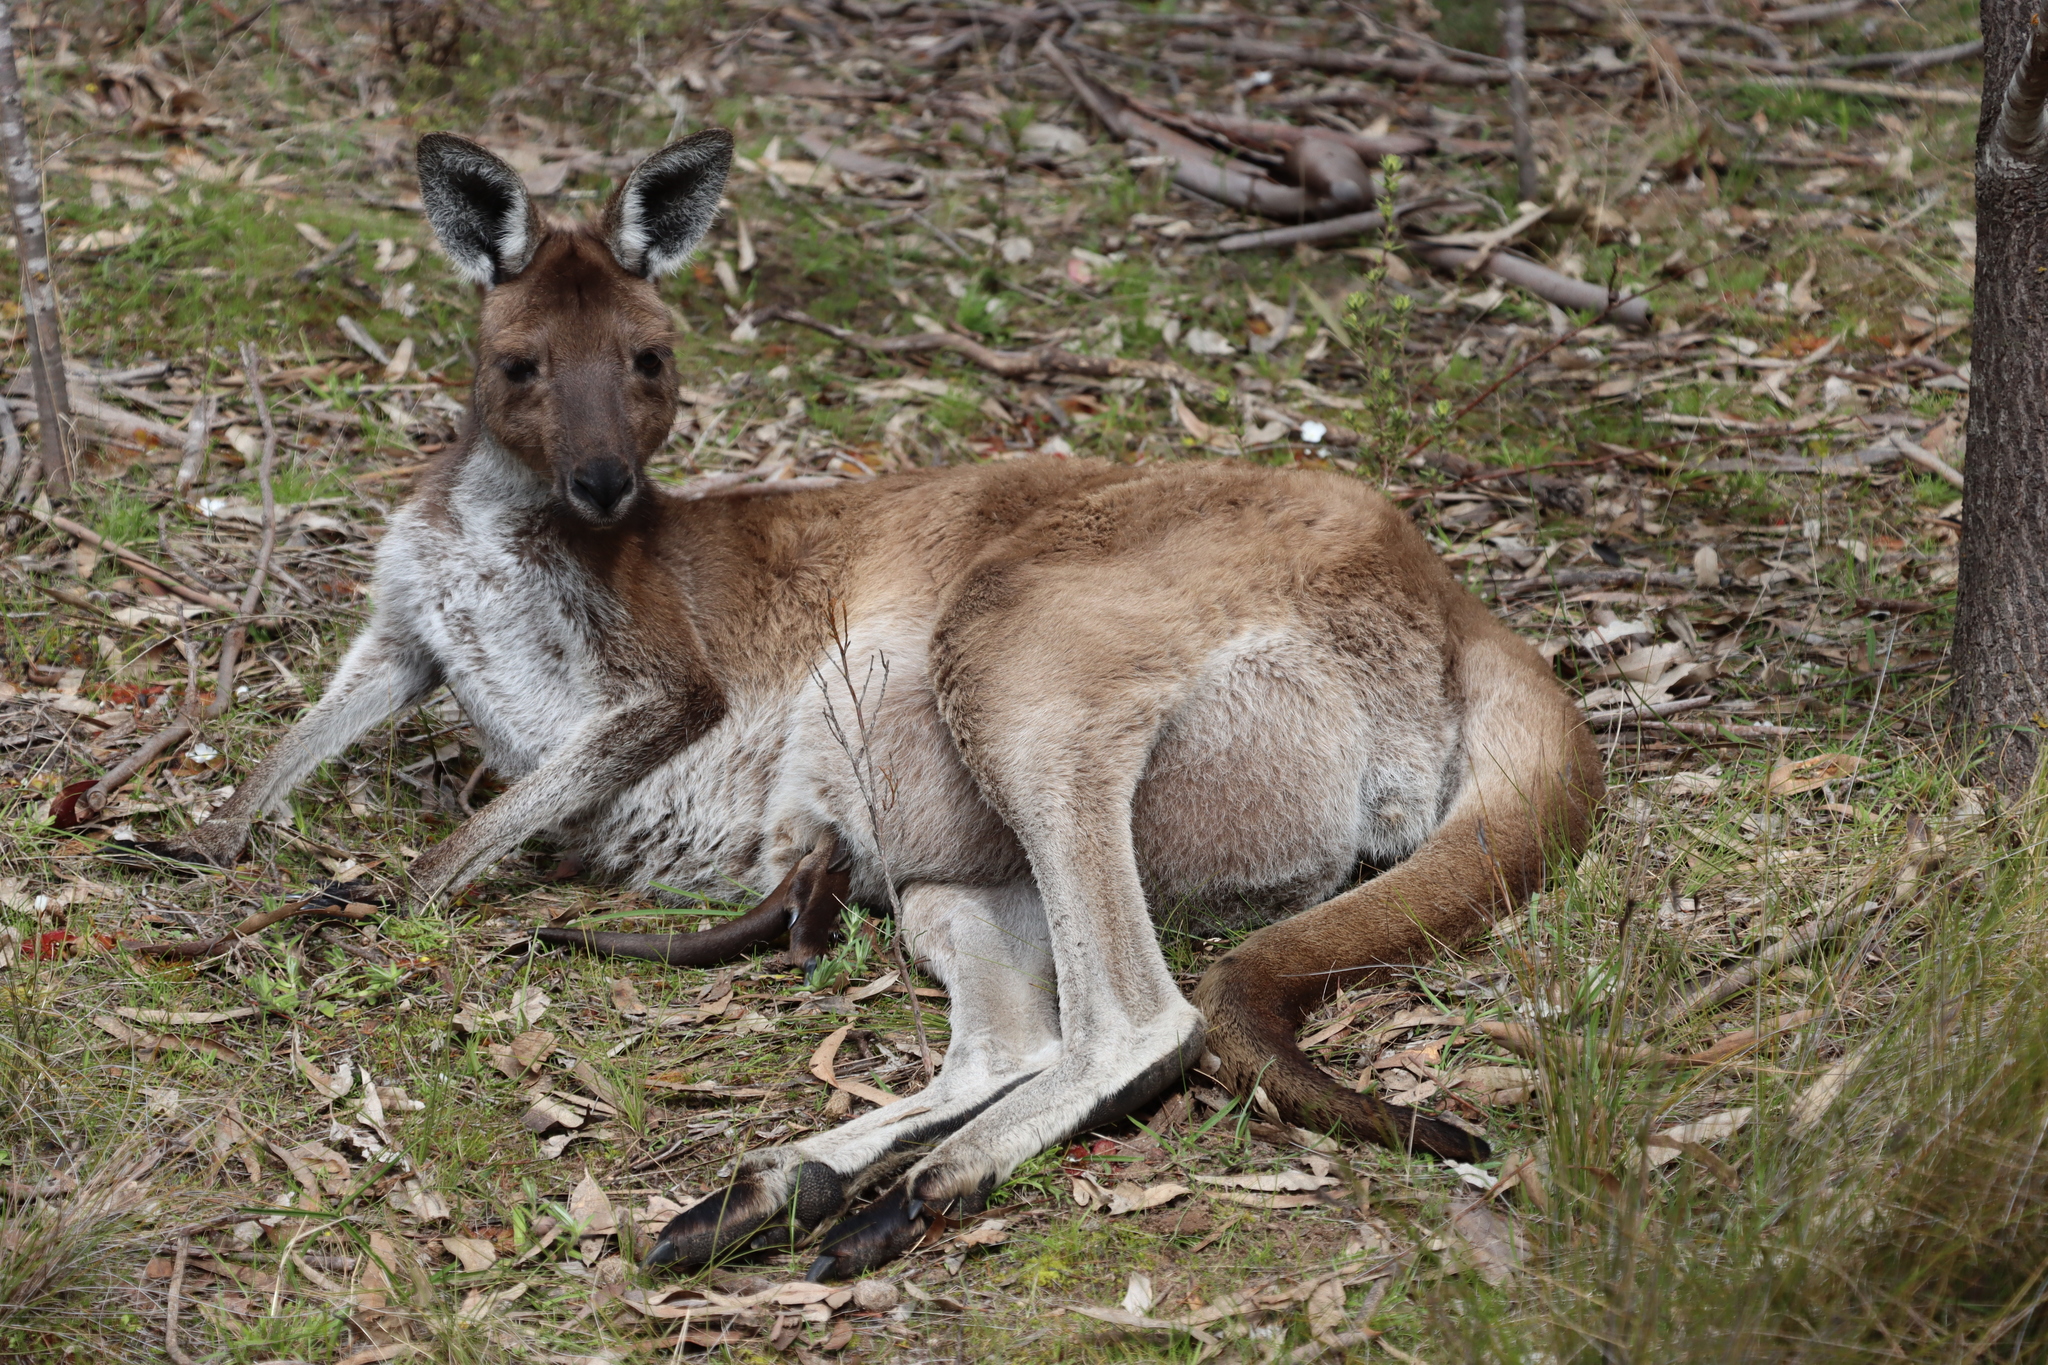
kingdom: Animalia
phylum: Chordata
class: Mammalia
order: Diprotodontia
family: Macropodidae
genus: Macropus
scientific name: Macropus fuliginosus
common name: Western grey kangaroo
